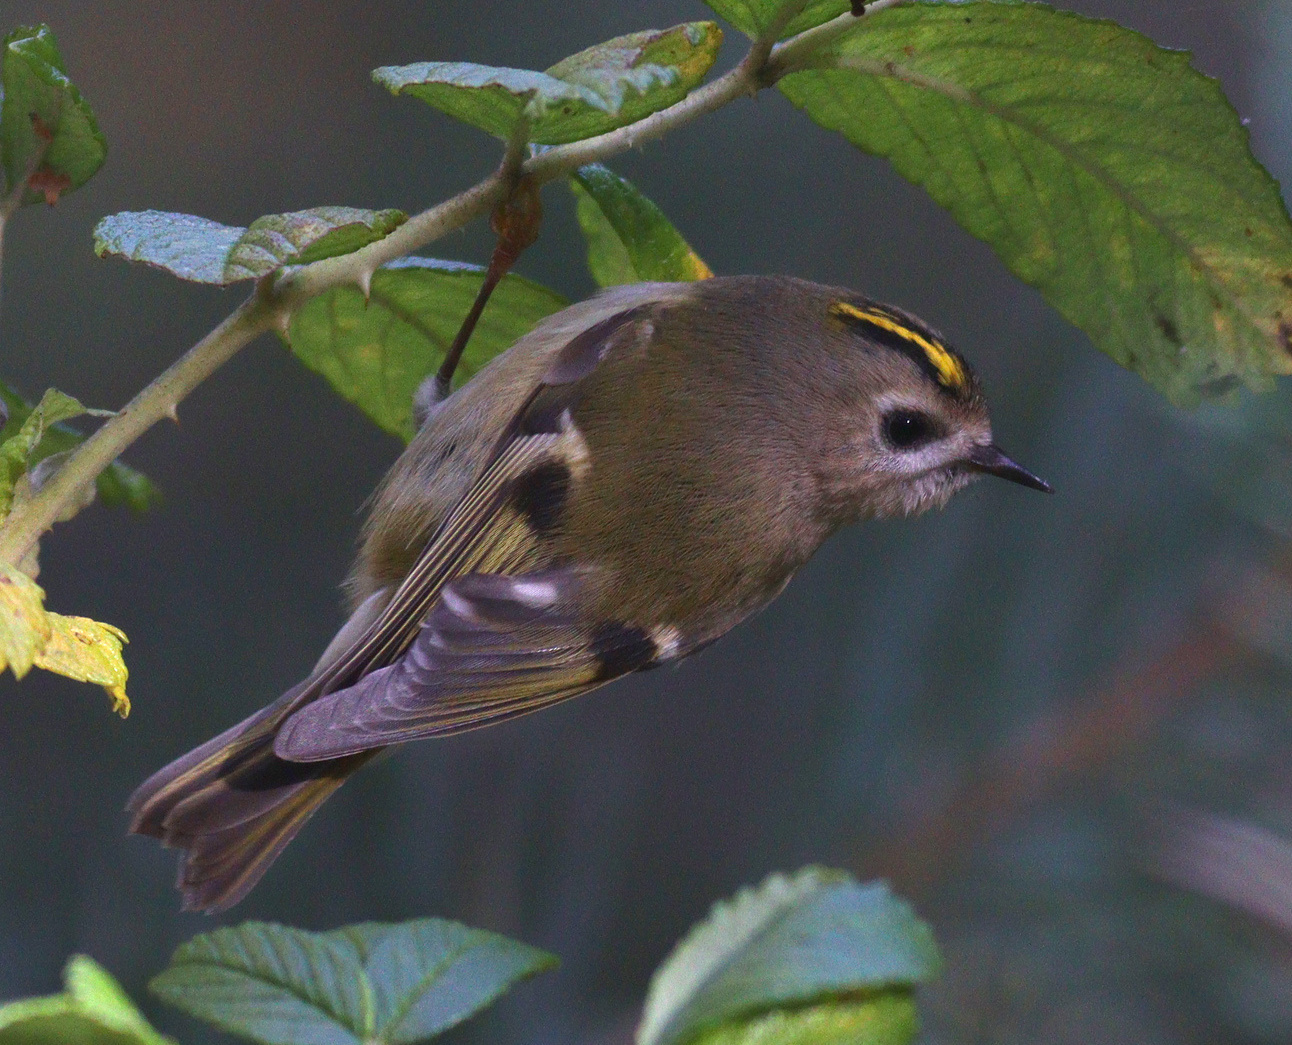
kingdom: Animalia
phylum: Chordata
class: Aves
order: Passeriformes
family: Regulidae
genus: Regulus
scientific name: Regulus regulus
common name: Goldcrest
